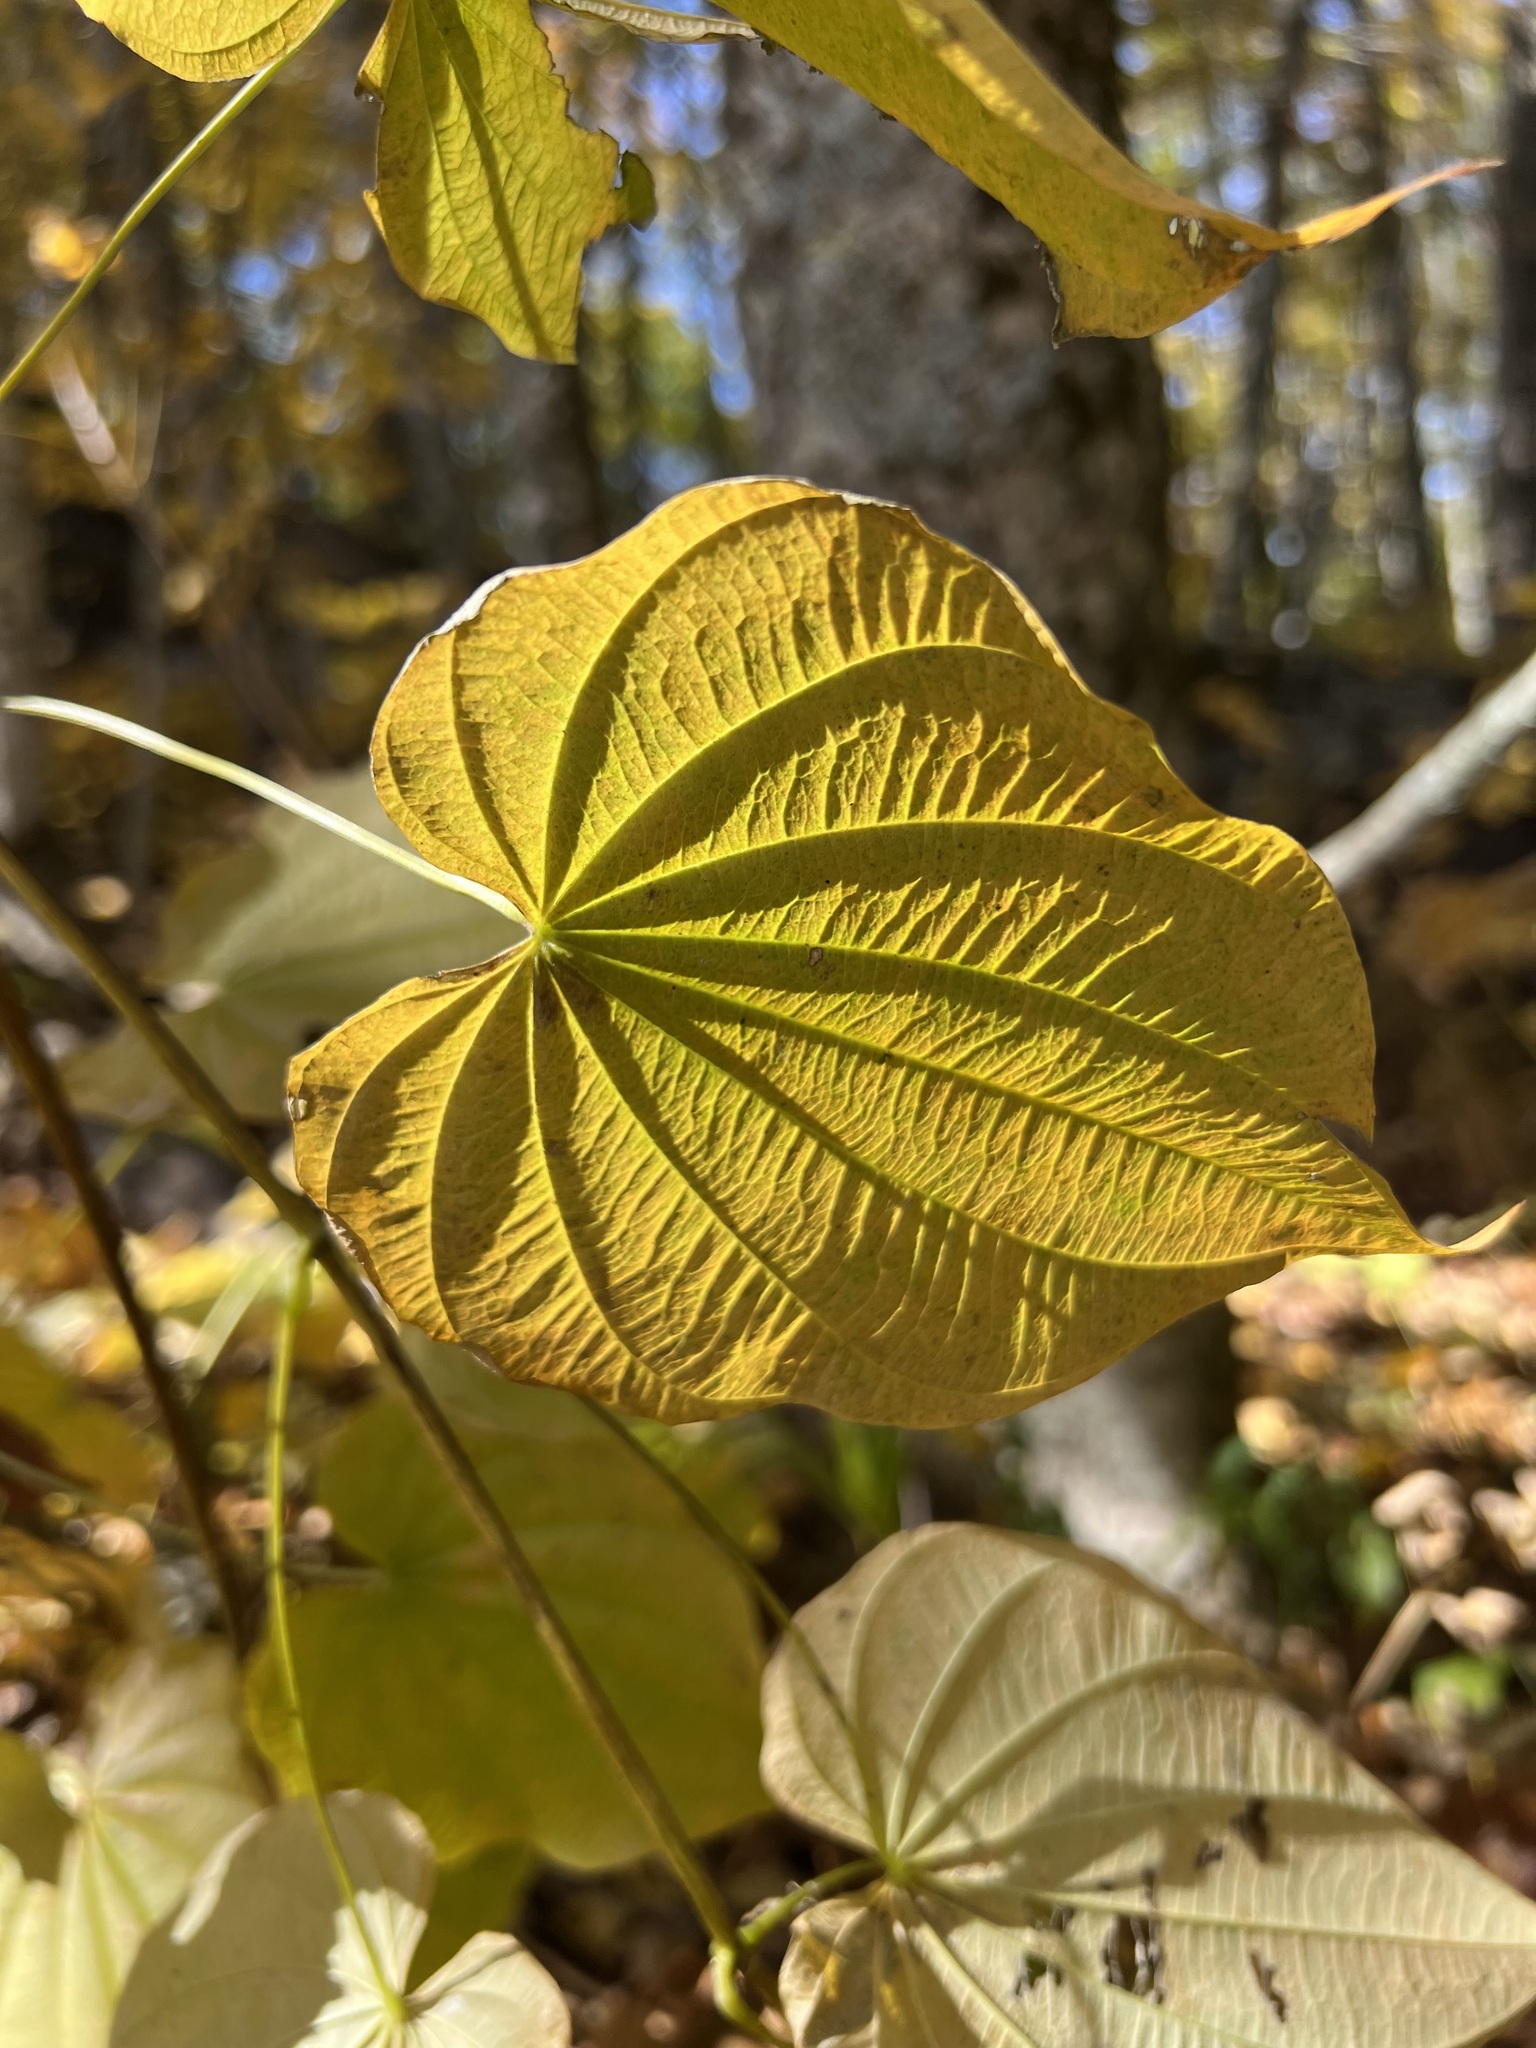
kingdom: Plantae
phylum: Tracheophyta
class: Liliopsida
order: Dioscoreales
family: Dioscoreaceae
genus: Dioscorea
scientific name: Dioscorea villosa
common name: Wild yam
